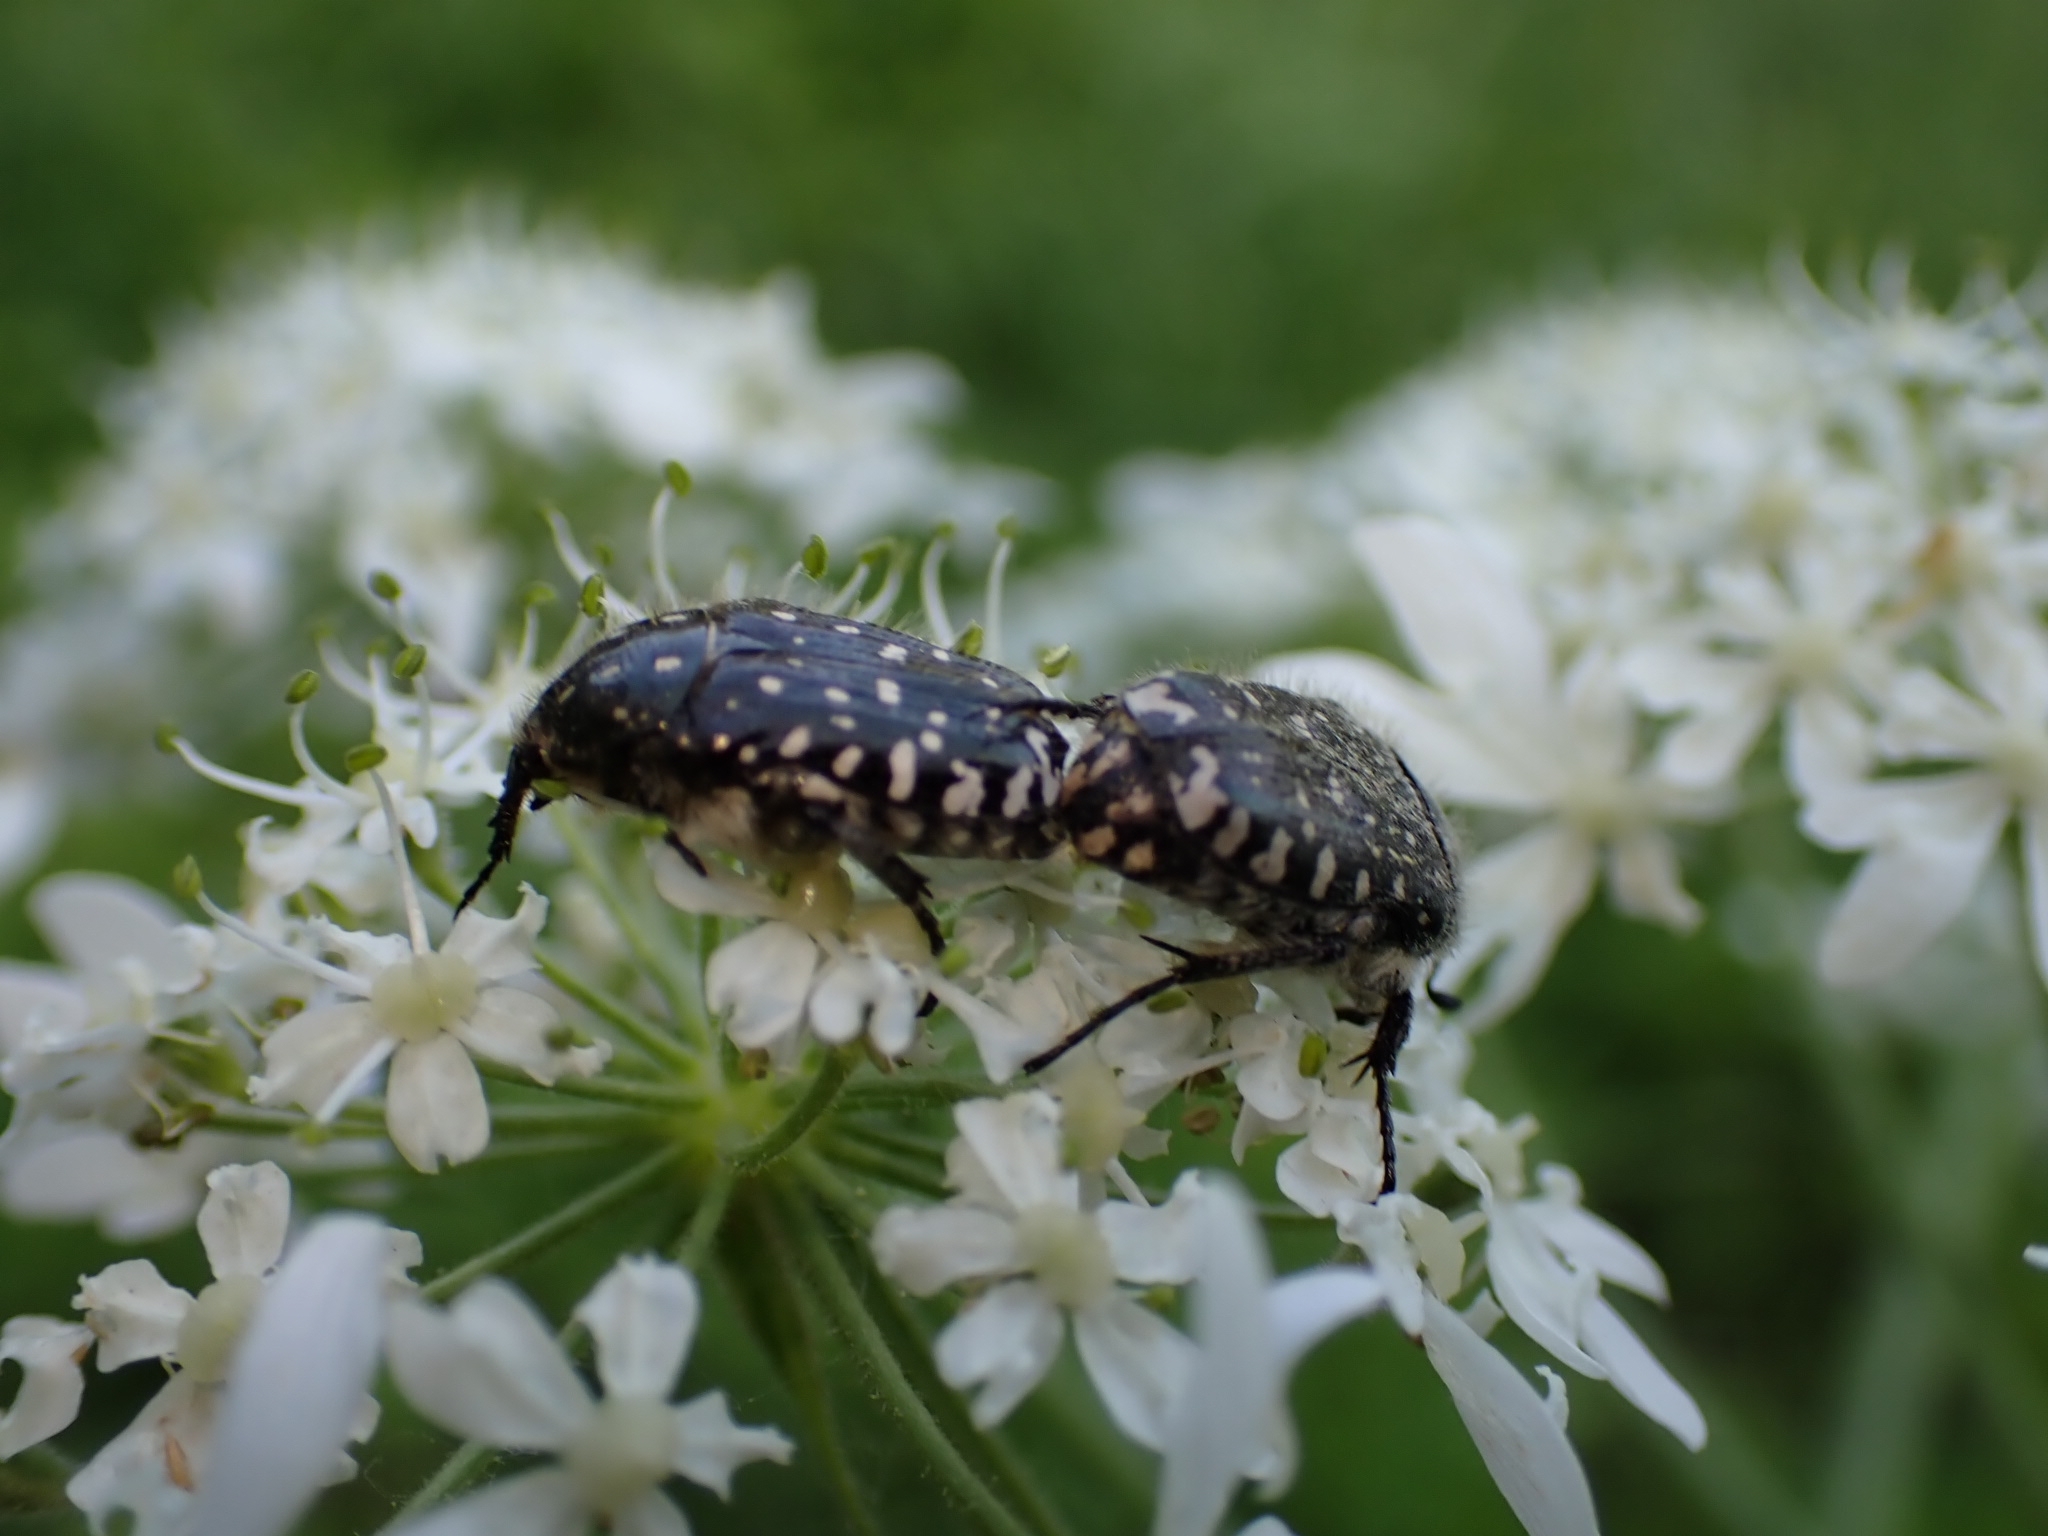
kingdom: Animalia
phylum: Arthropoda
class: Insecta
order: Coleoptera
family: Scarabaeidae
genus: Oxythyrea
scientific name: Oxythyrea funesta
